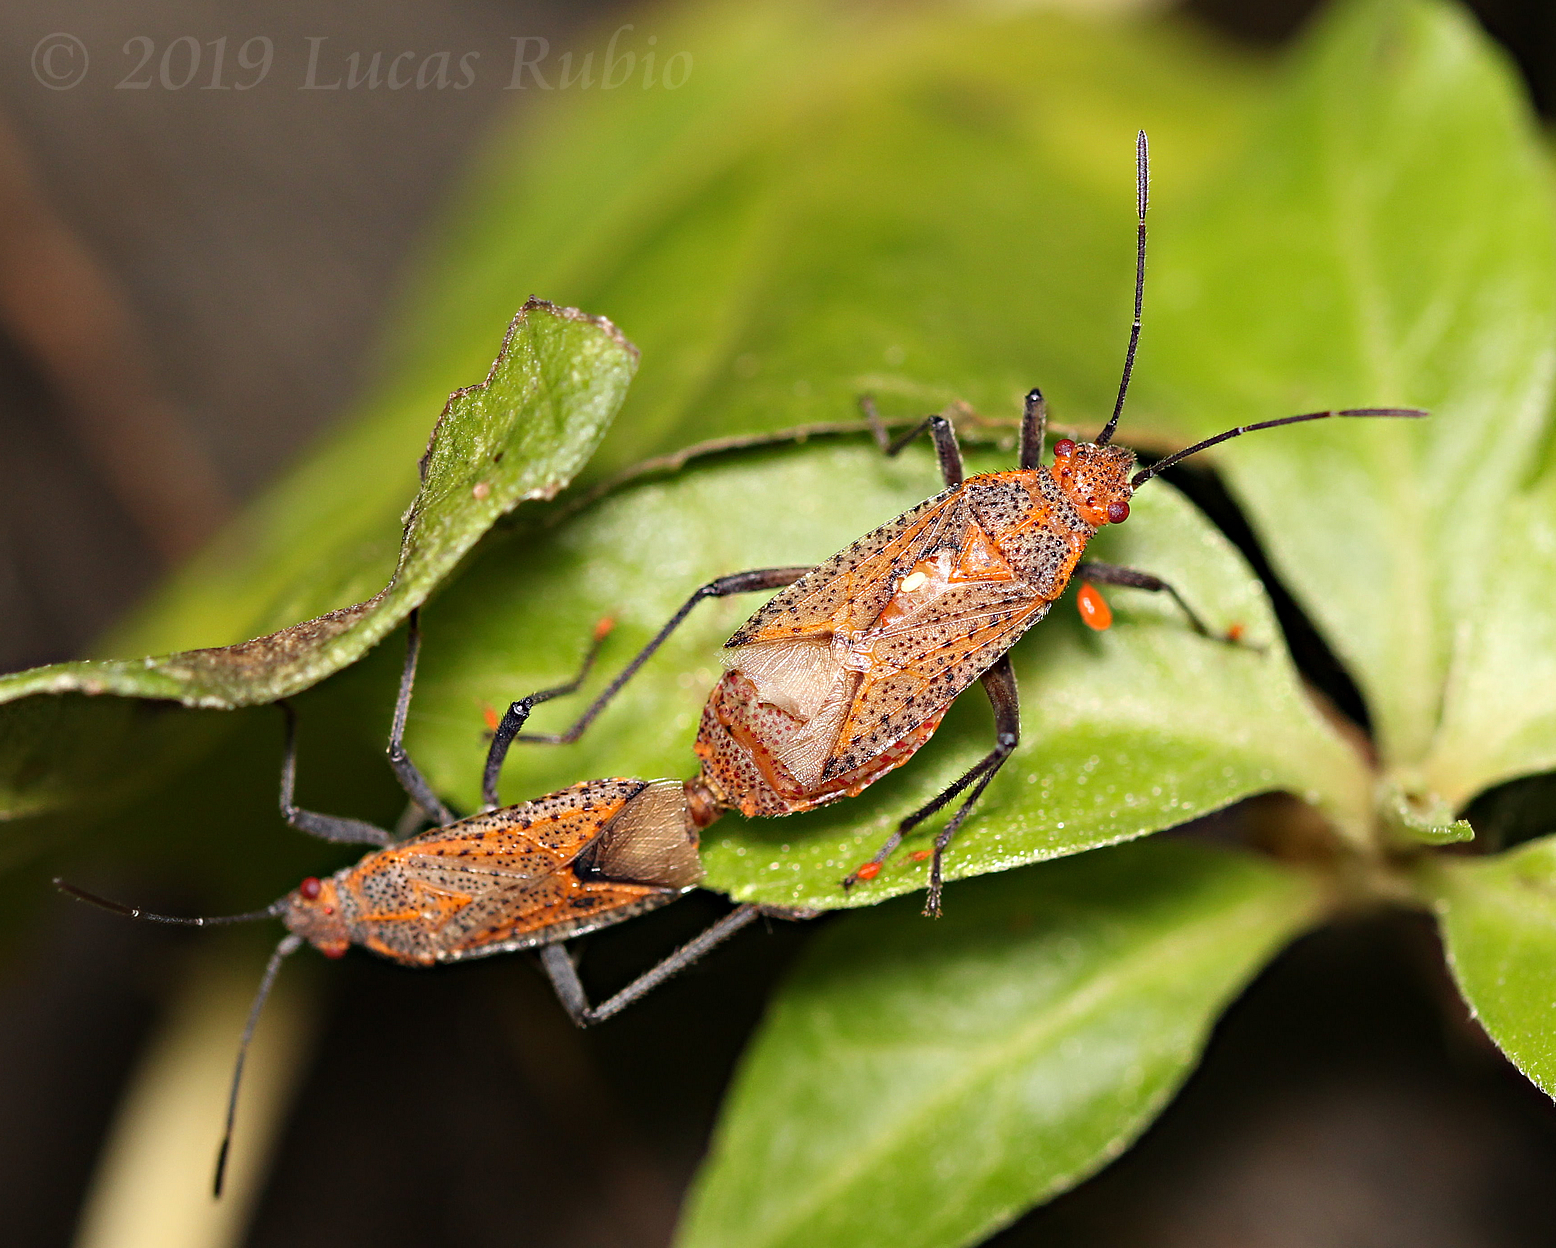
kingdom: Animalia
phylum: Arthropoda
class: Insecta
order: Hemiptera
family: Rhopalidae
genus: Jadera
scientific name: Jadera choprai
